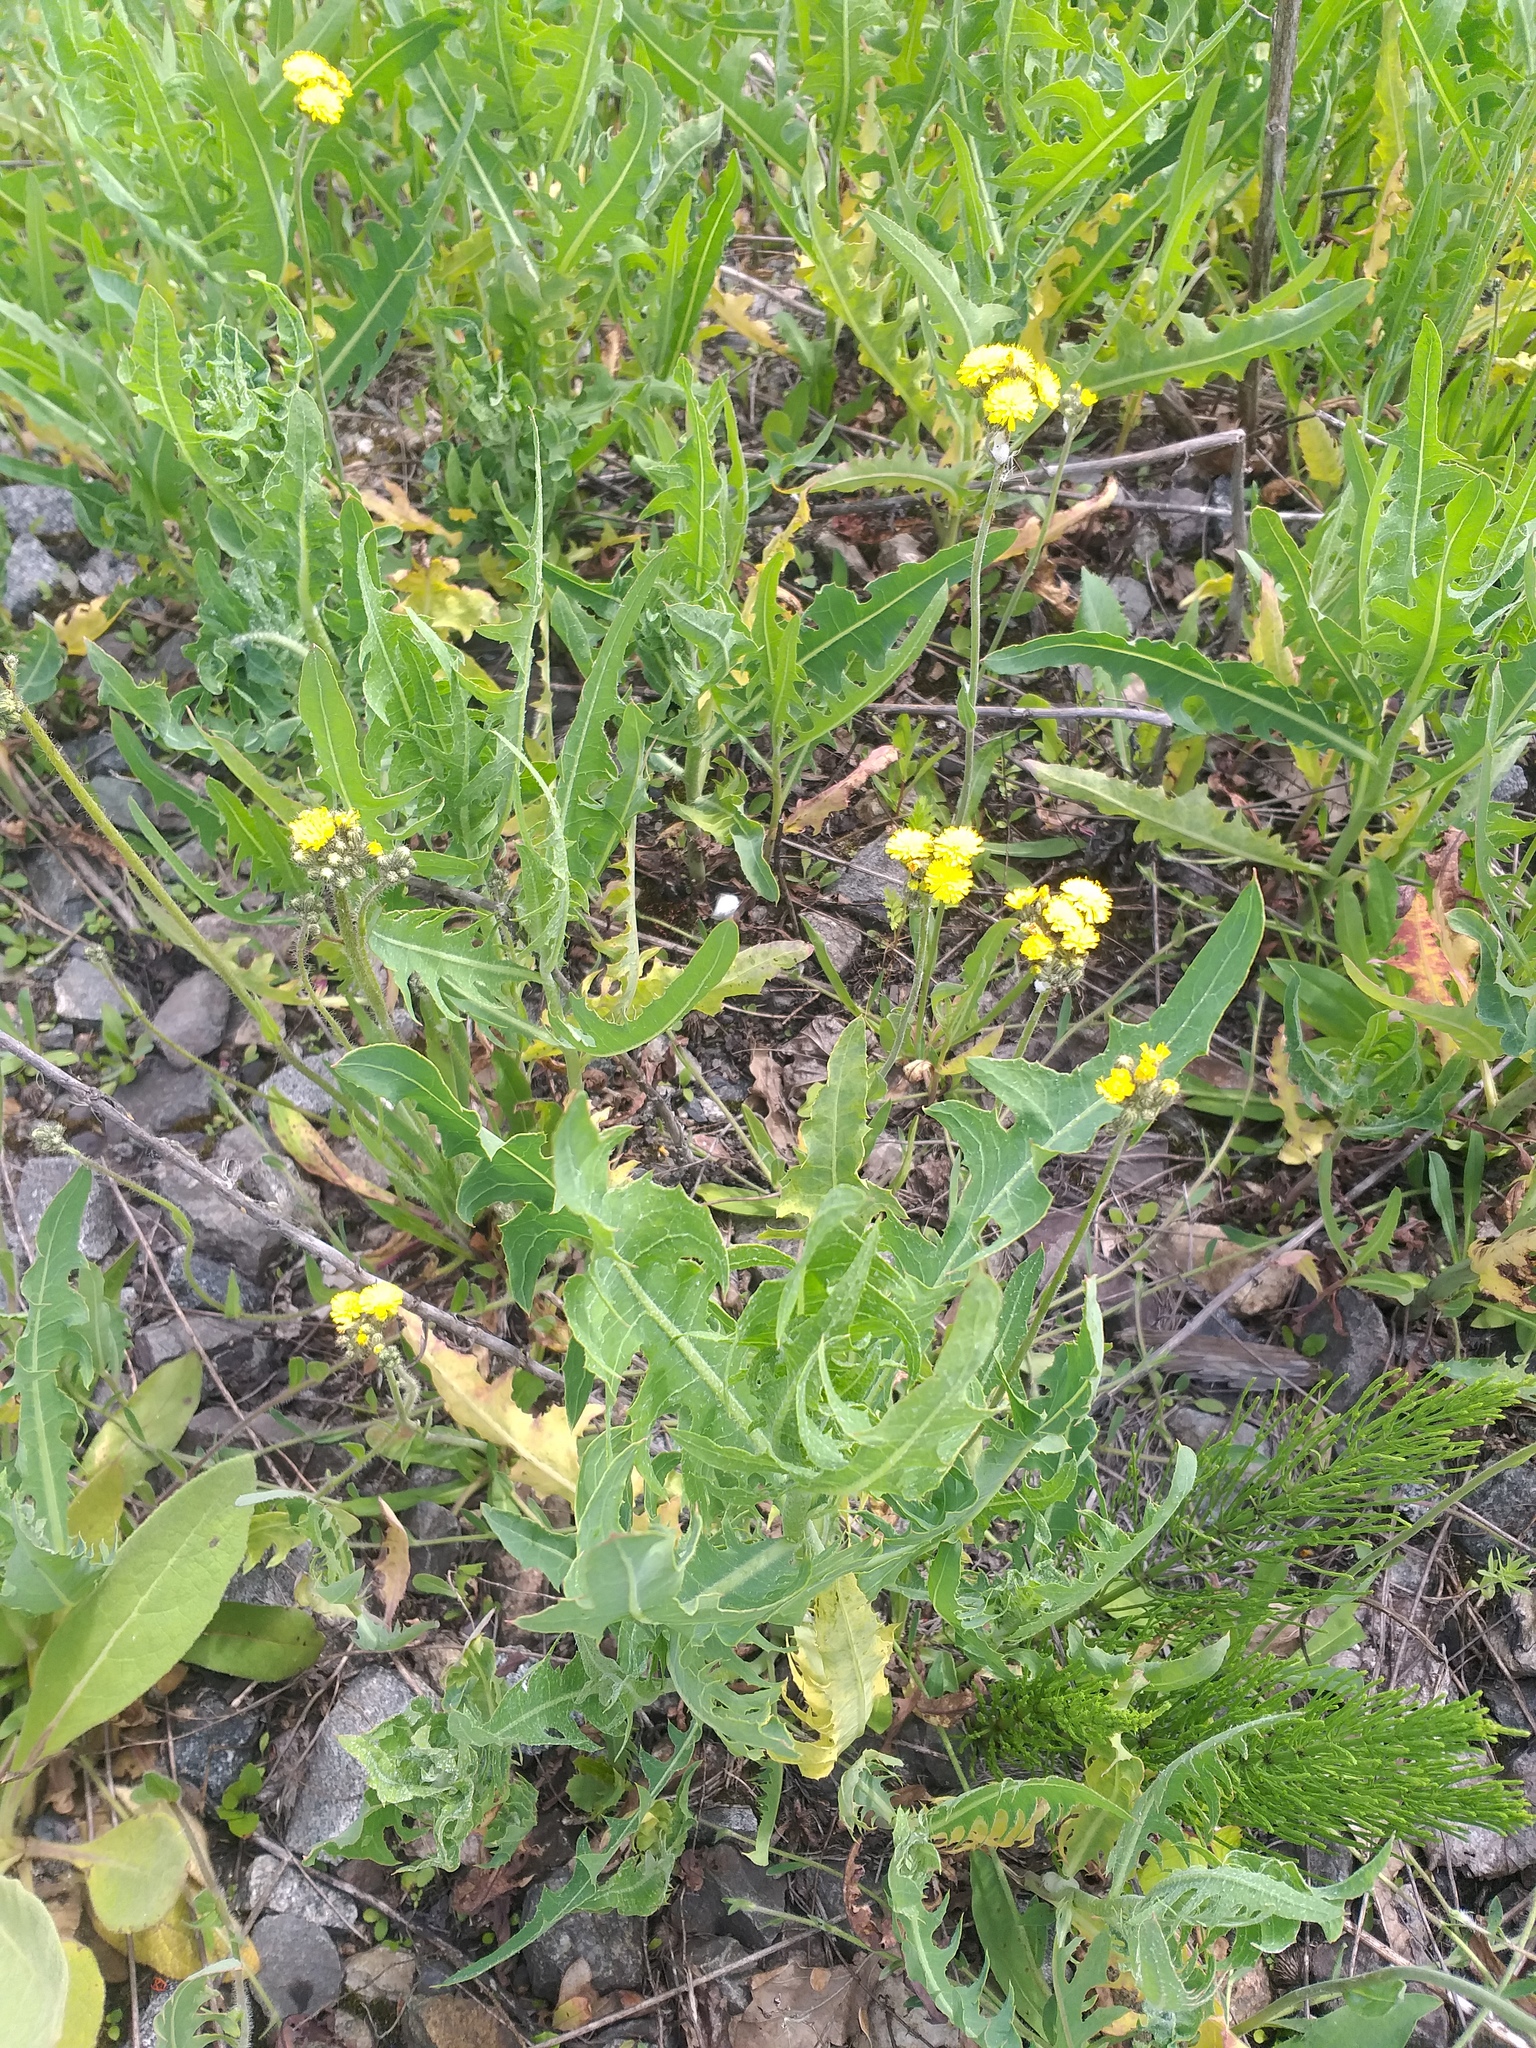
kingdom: Plantae
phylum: Tracheophyta
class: Magnoliopsida
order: Asterales
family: Asteraceae
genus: Lactuca
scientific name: Lactuca tatarica
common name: Blue lettuce
